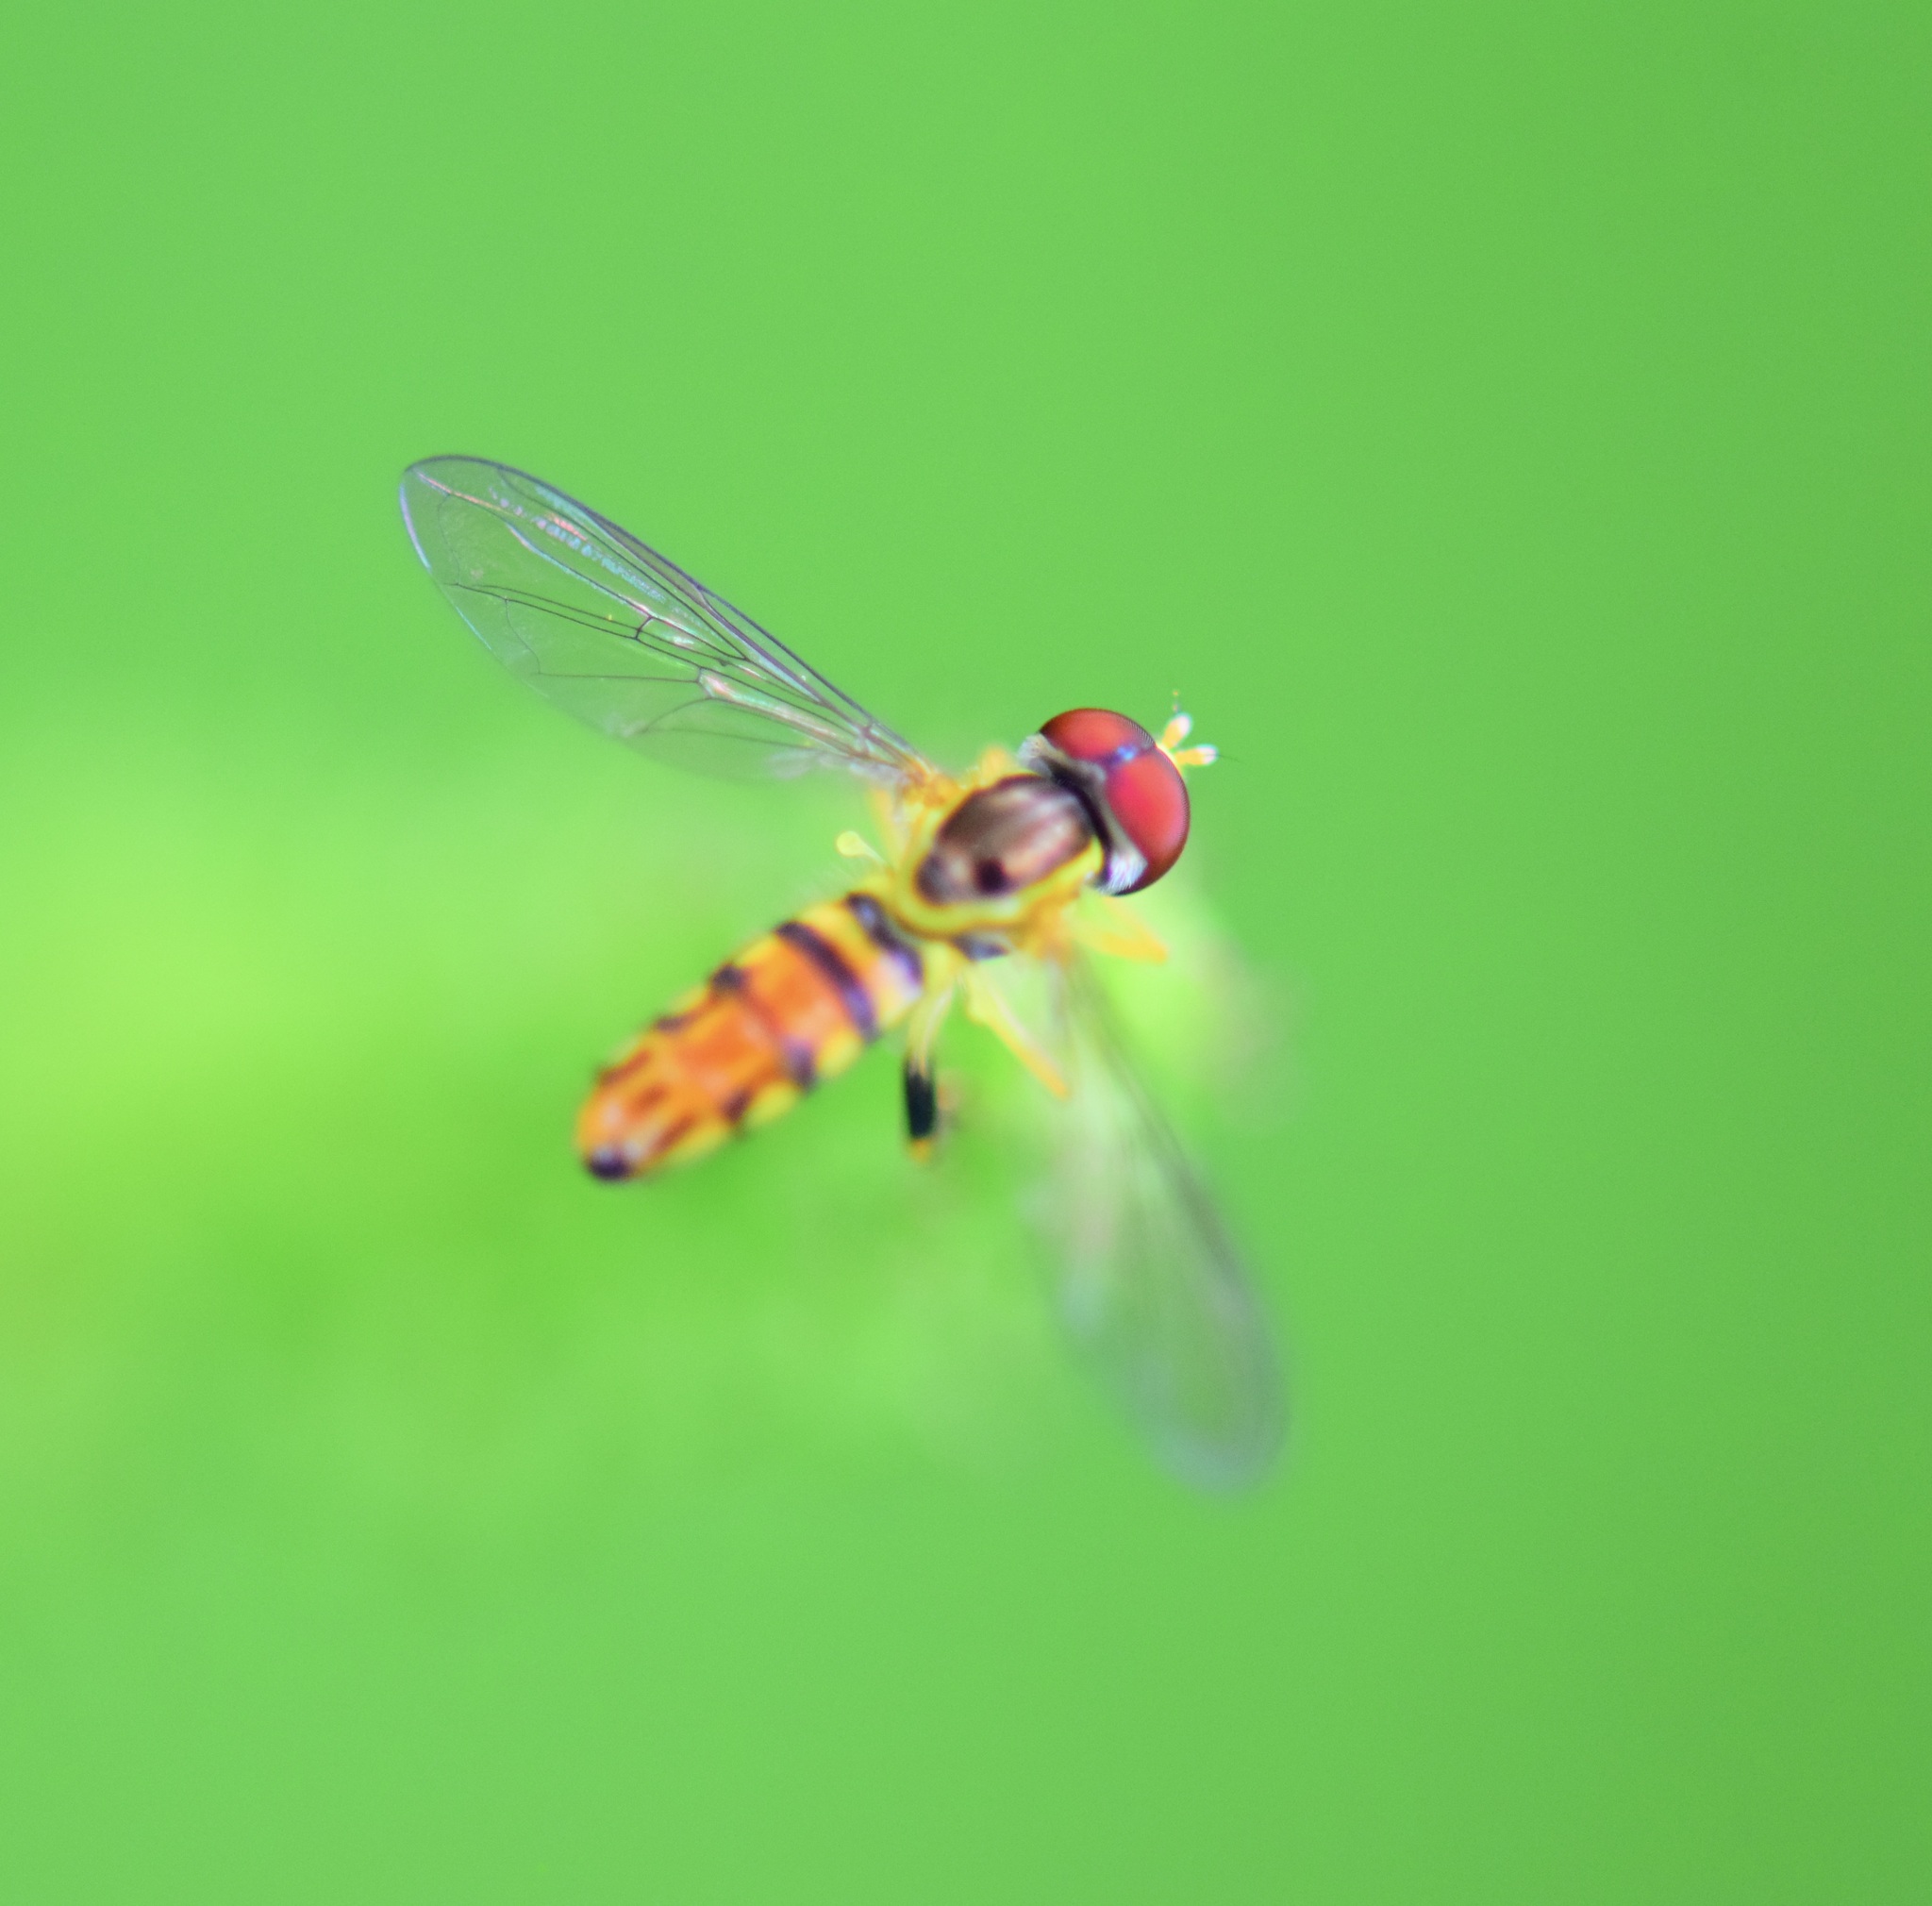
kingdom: Animalia
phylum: Arthropoda
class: Insecta
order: Diptera
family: Syrphidae
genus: Toxomerus
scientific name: Toxomerus geminatus
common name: Eastern calligrapher
